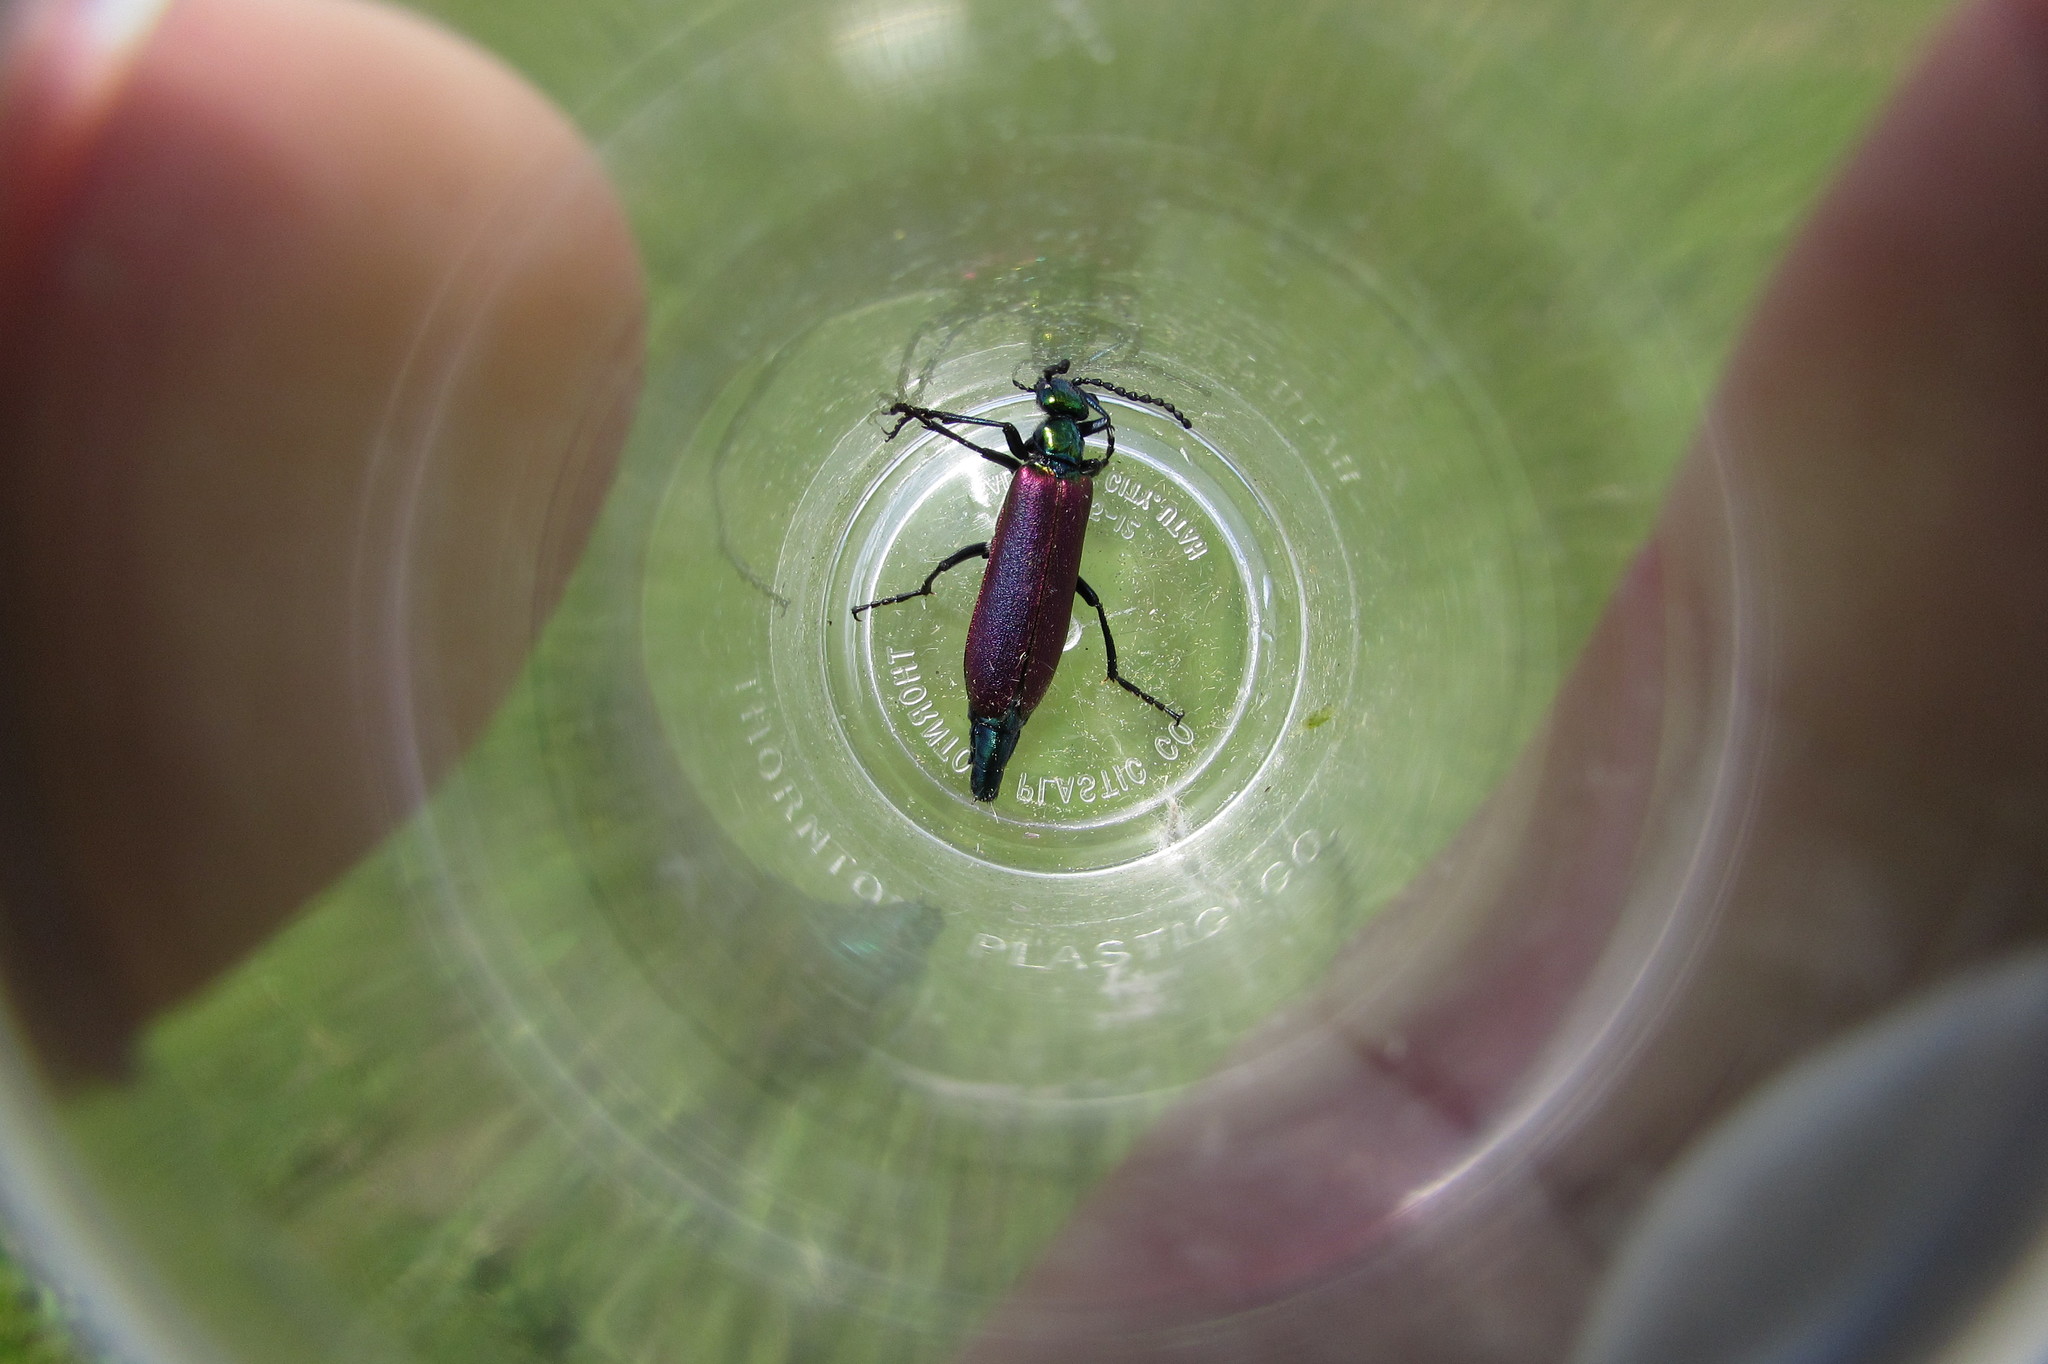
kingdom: Animalia
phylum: Arthropoda
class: Insecta
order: Coleoptera
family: Meloidae
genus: Lytta
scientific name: Lytta nuttallii
